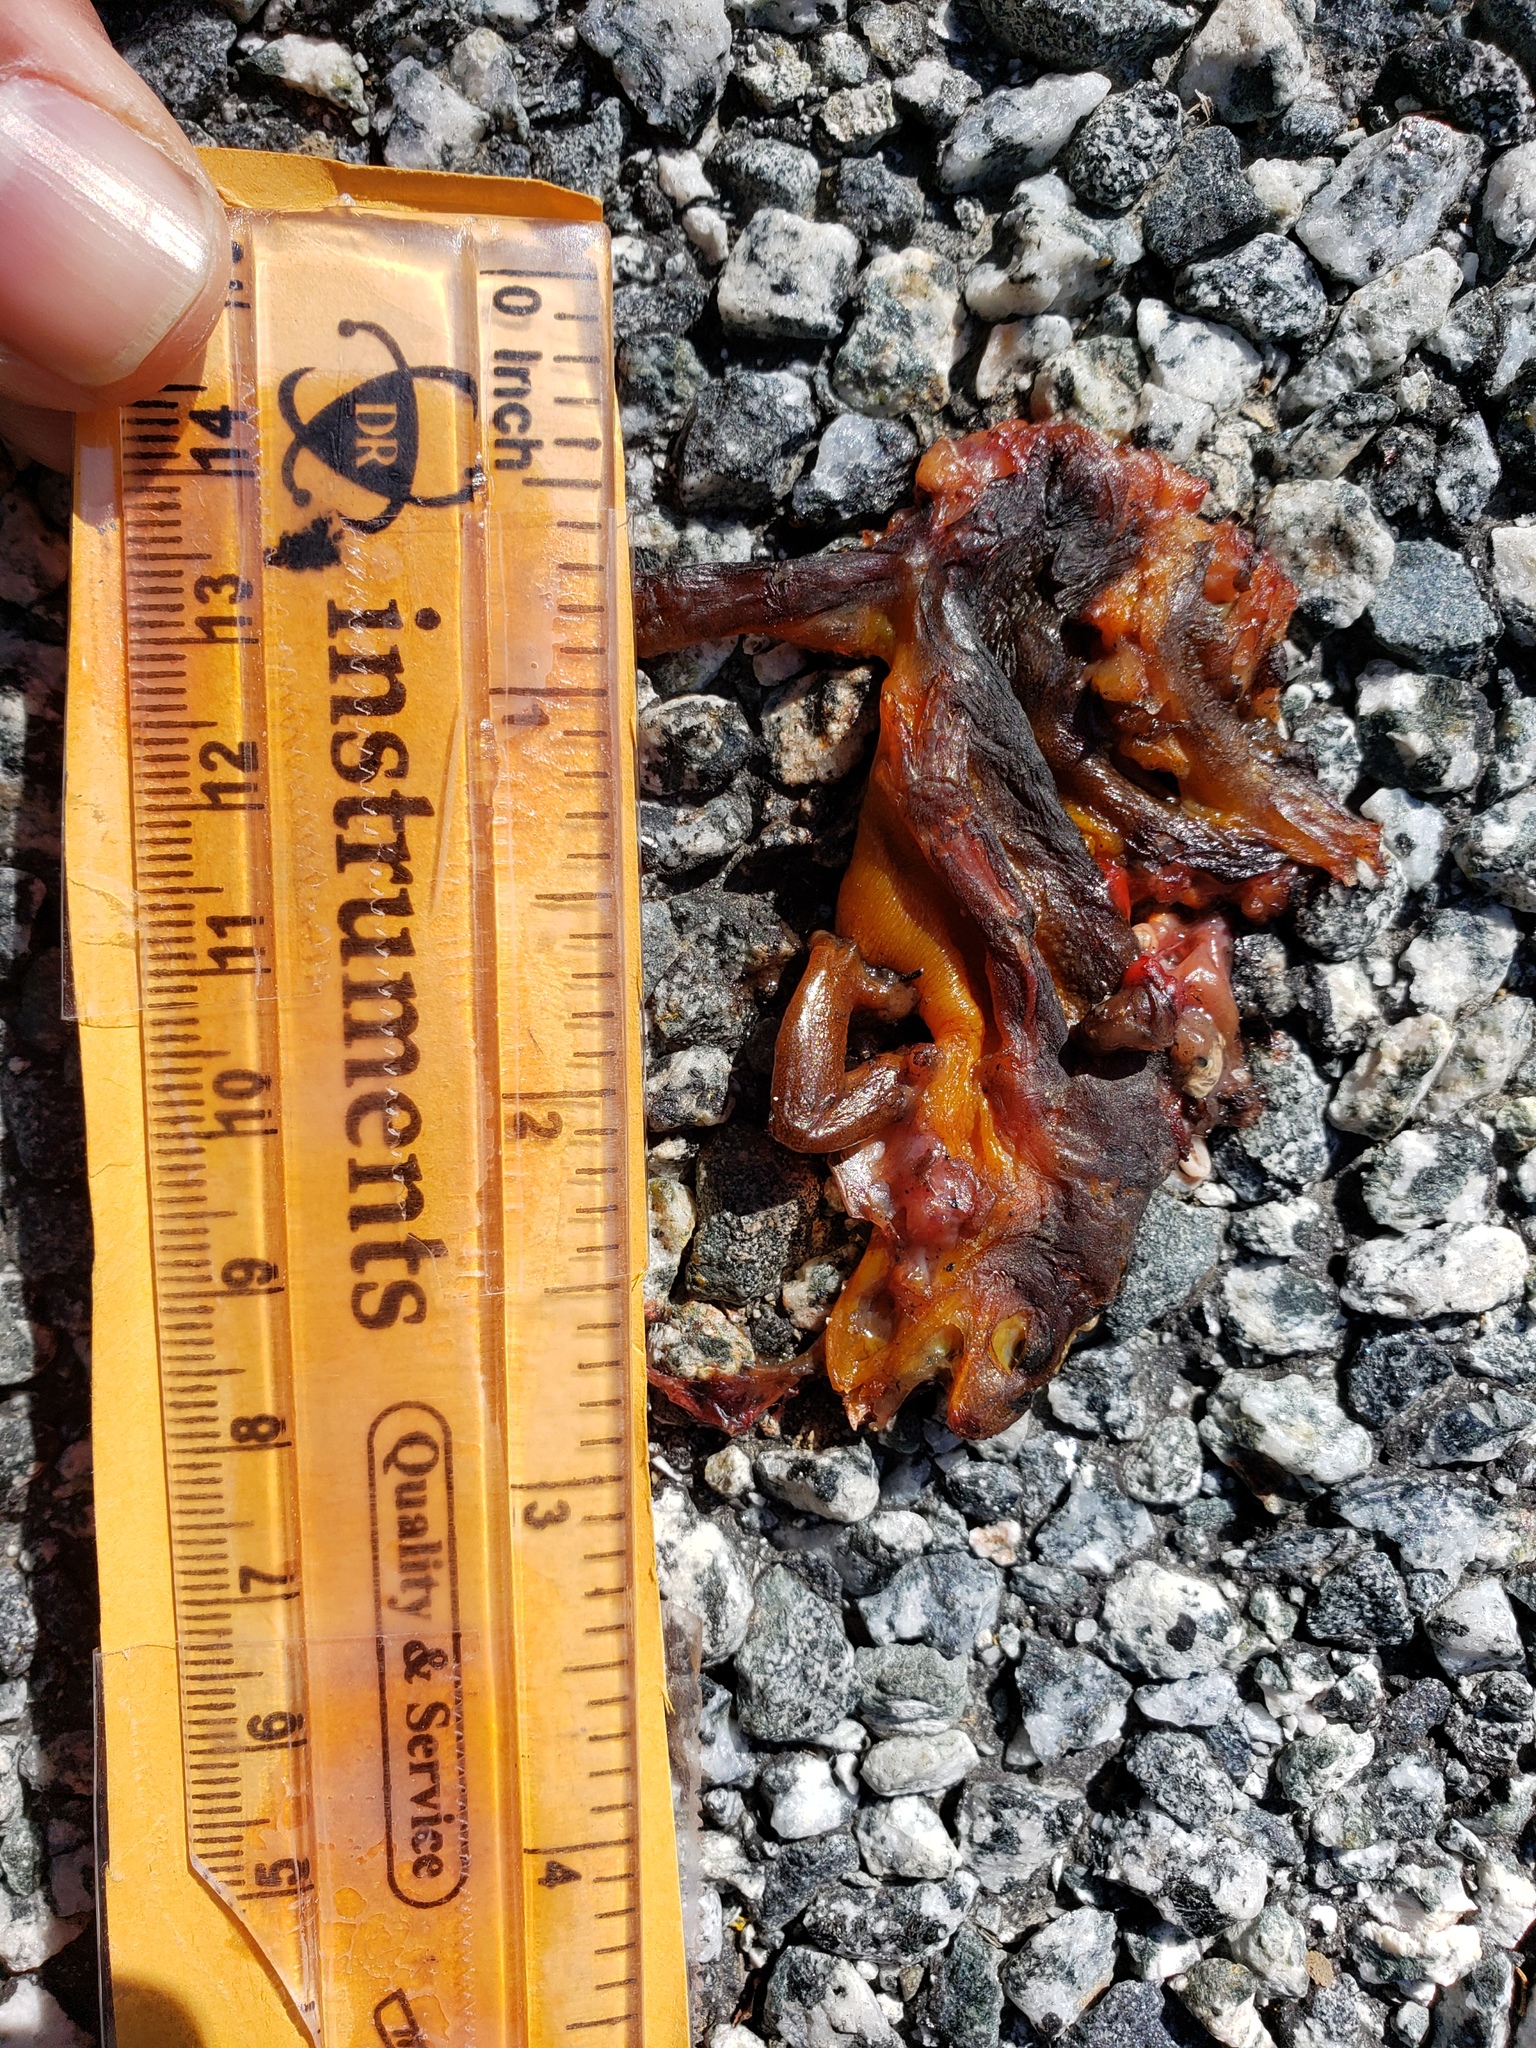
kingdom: Animalia
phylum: Chordata
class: Amphibia
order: Caudata
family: Salamandridae
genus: Taricha
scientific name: Taricha
